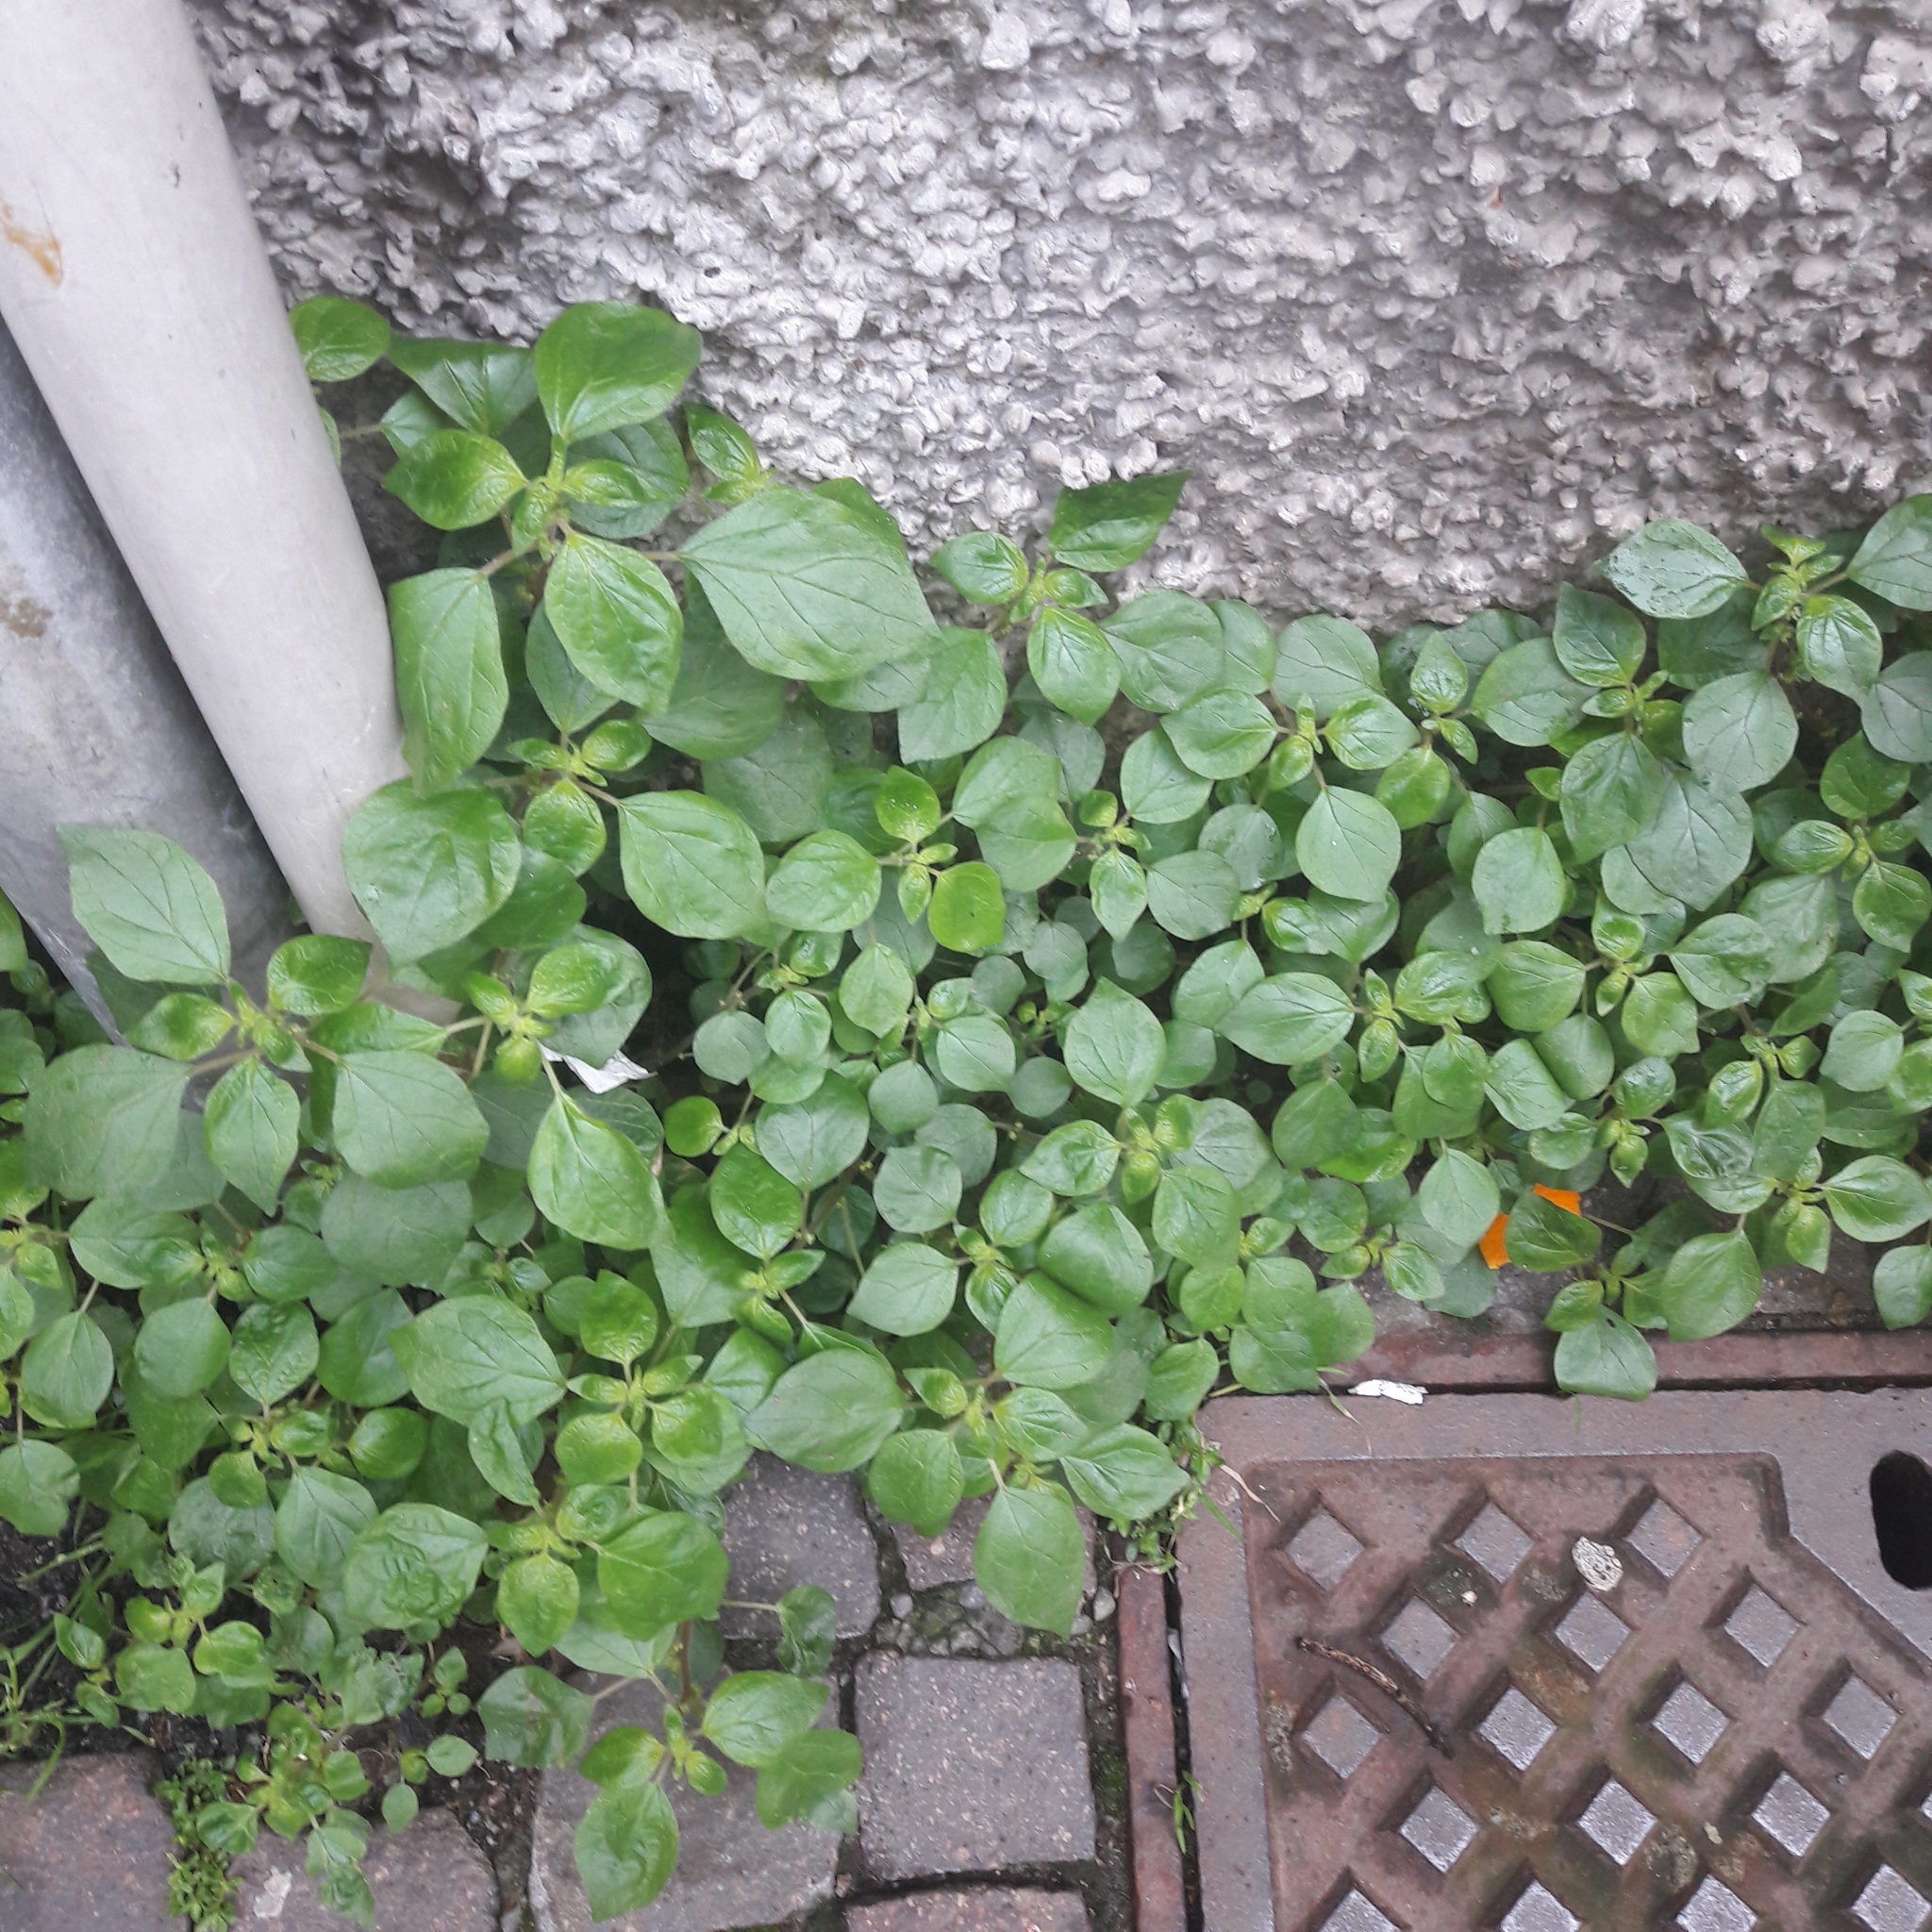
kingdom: Plantae
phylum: Tracheophyta
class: Magnoliopsida
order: Rosales
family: Urticaceae
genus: Parietaria
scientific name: Parietaria judaica
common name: Pellitory-of-the-wall
